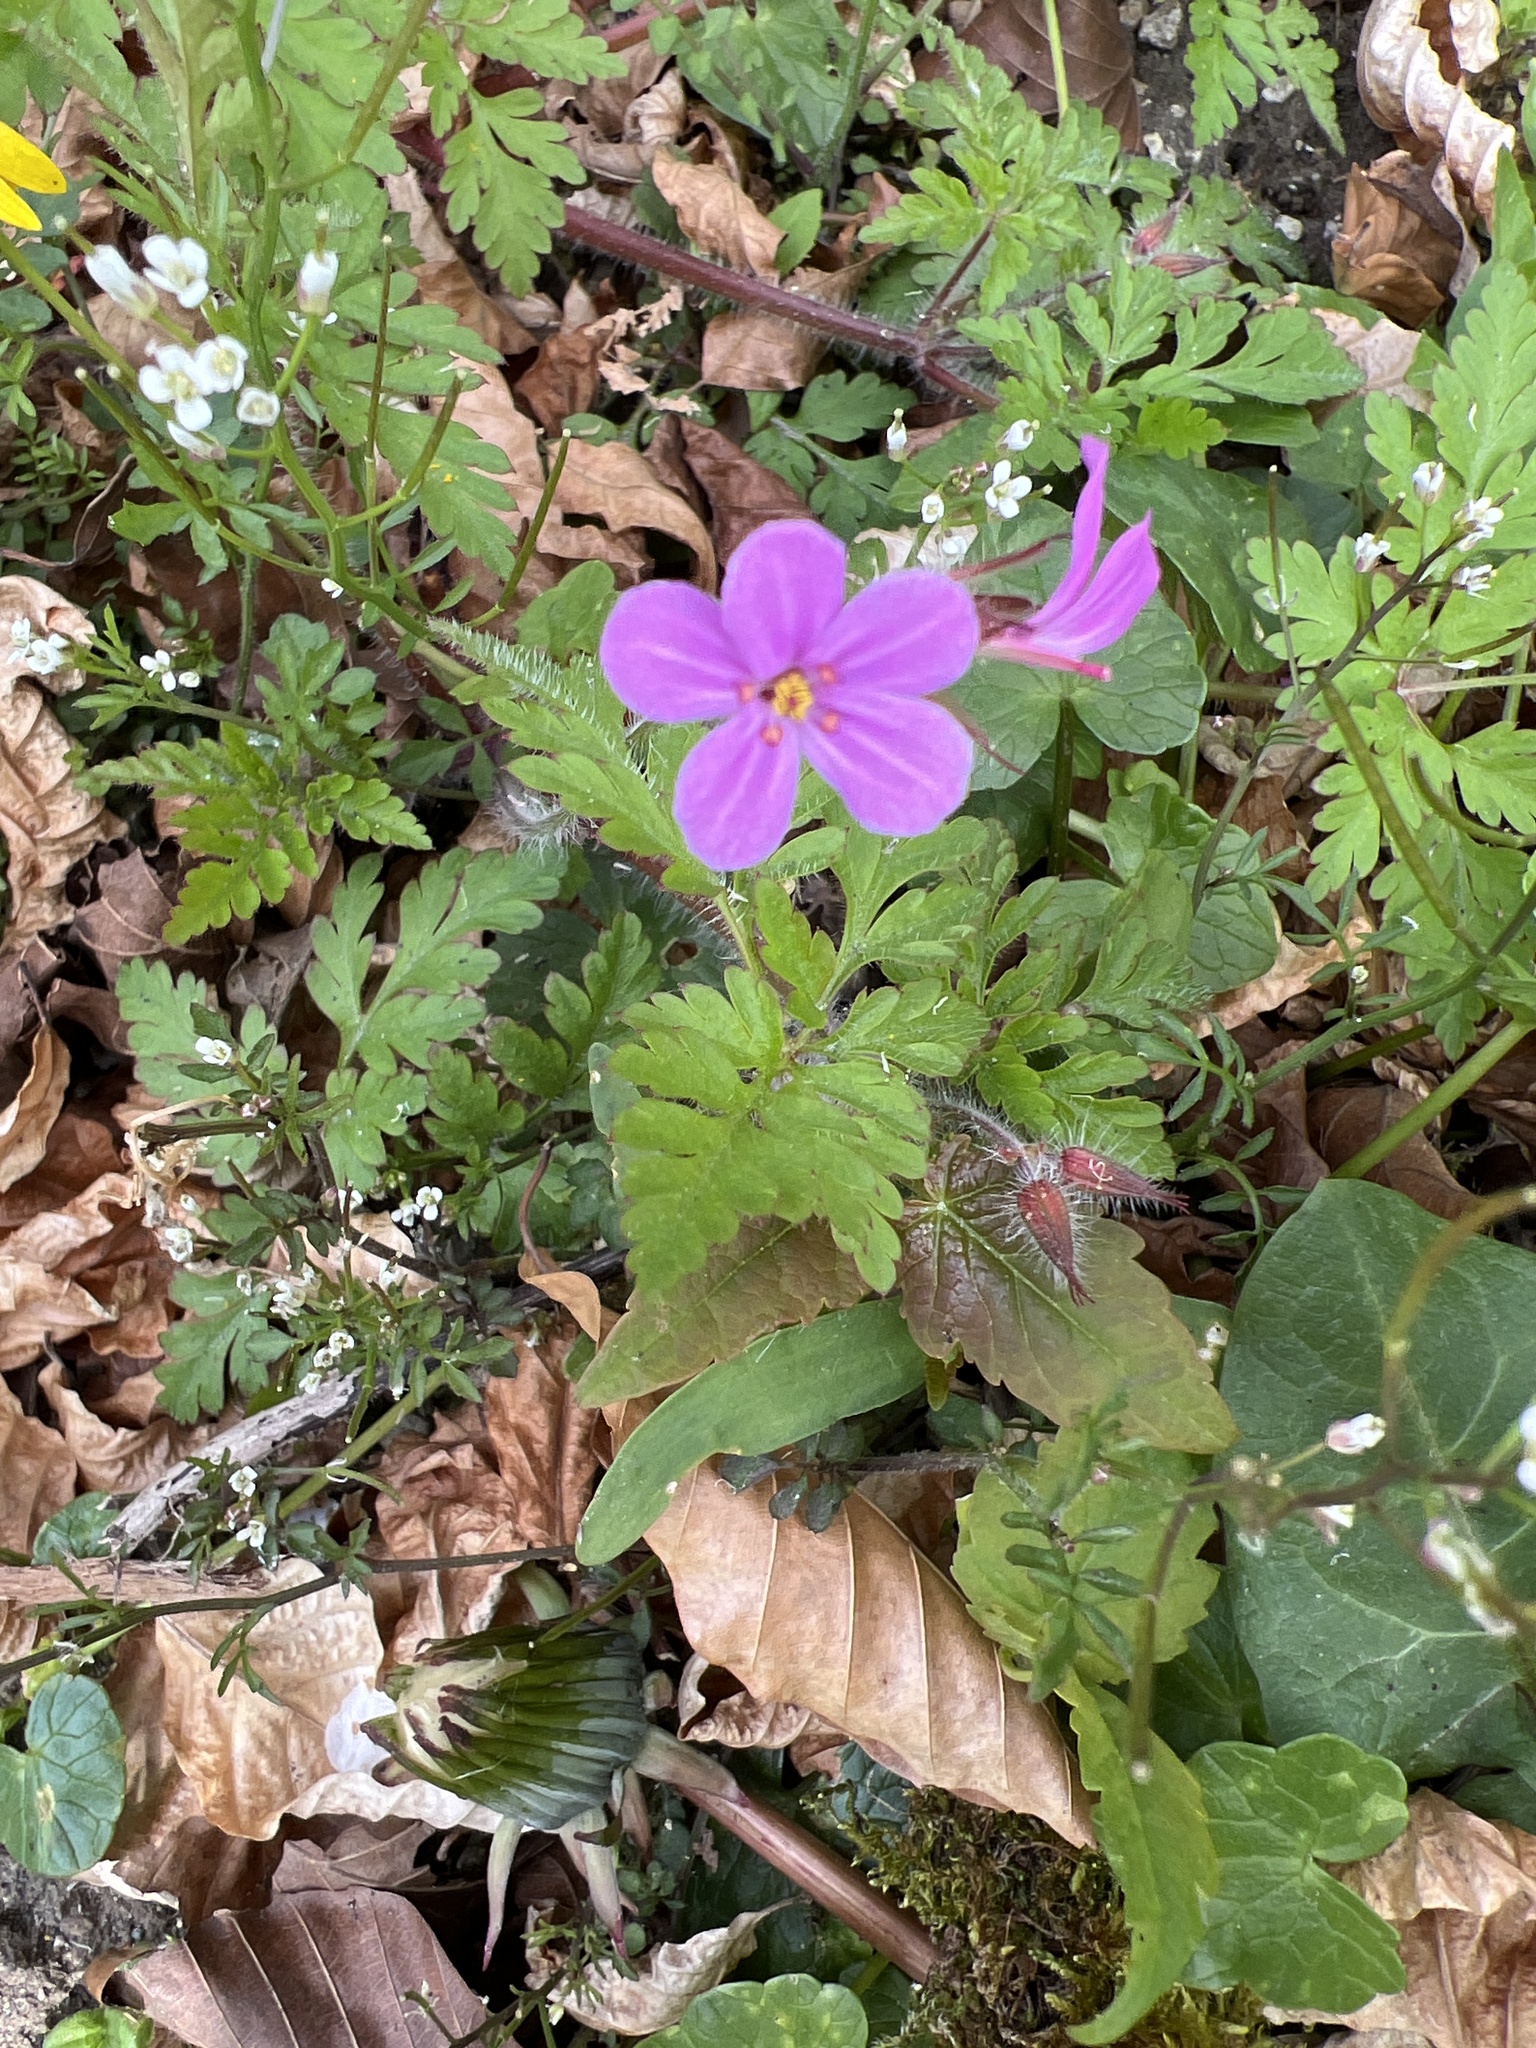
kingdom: Plantae
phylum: Tracheophyta
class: Magnoliopsida
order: Geraniales
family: Geraniaceae
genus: Geranium
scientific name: Geranium robertianum
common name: Herb-robert
